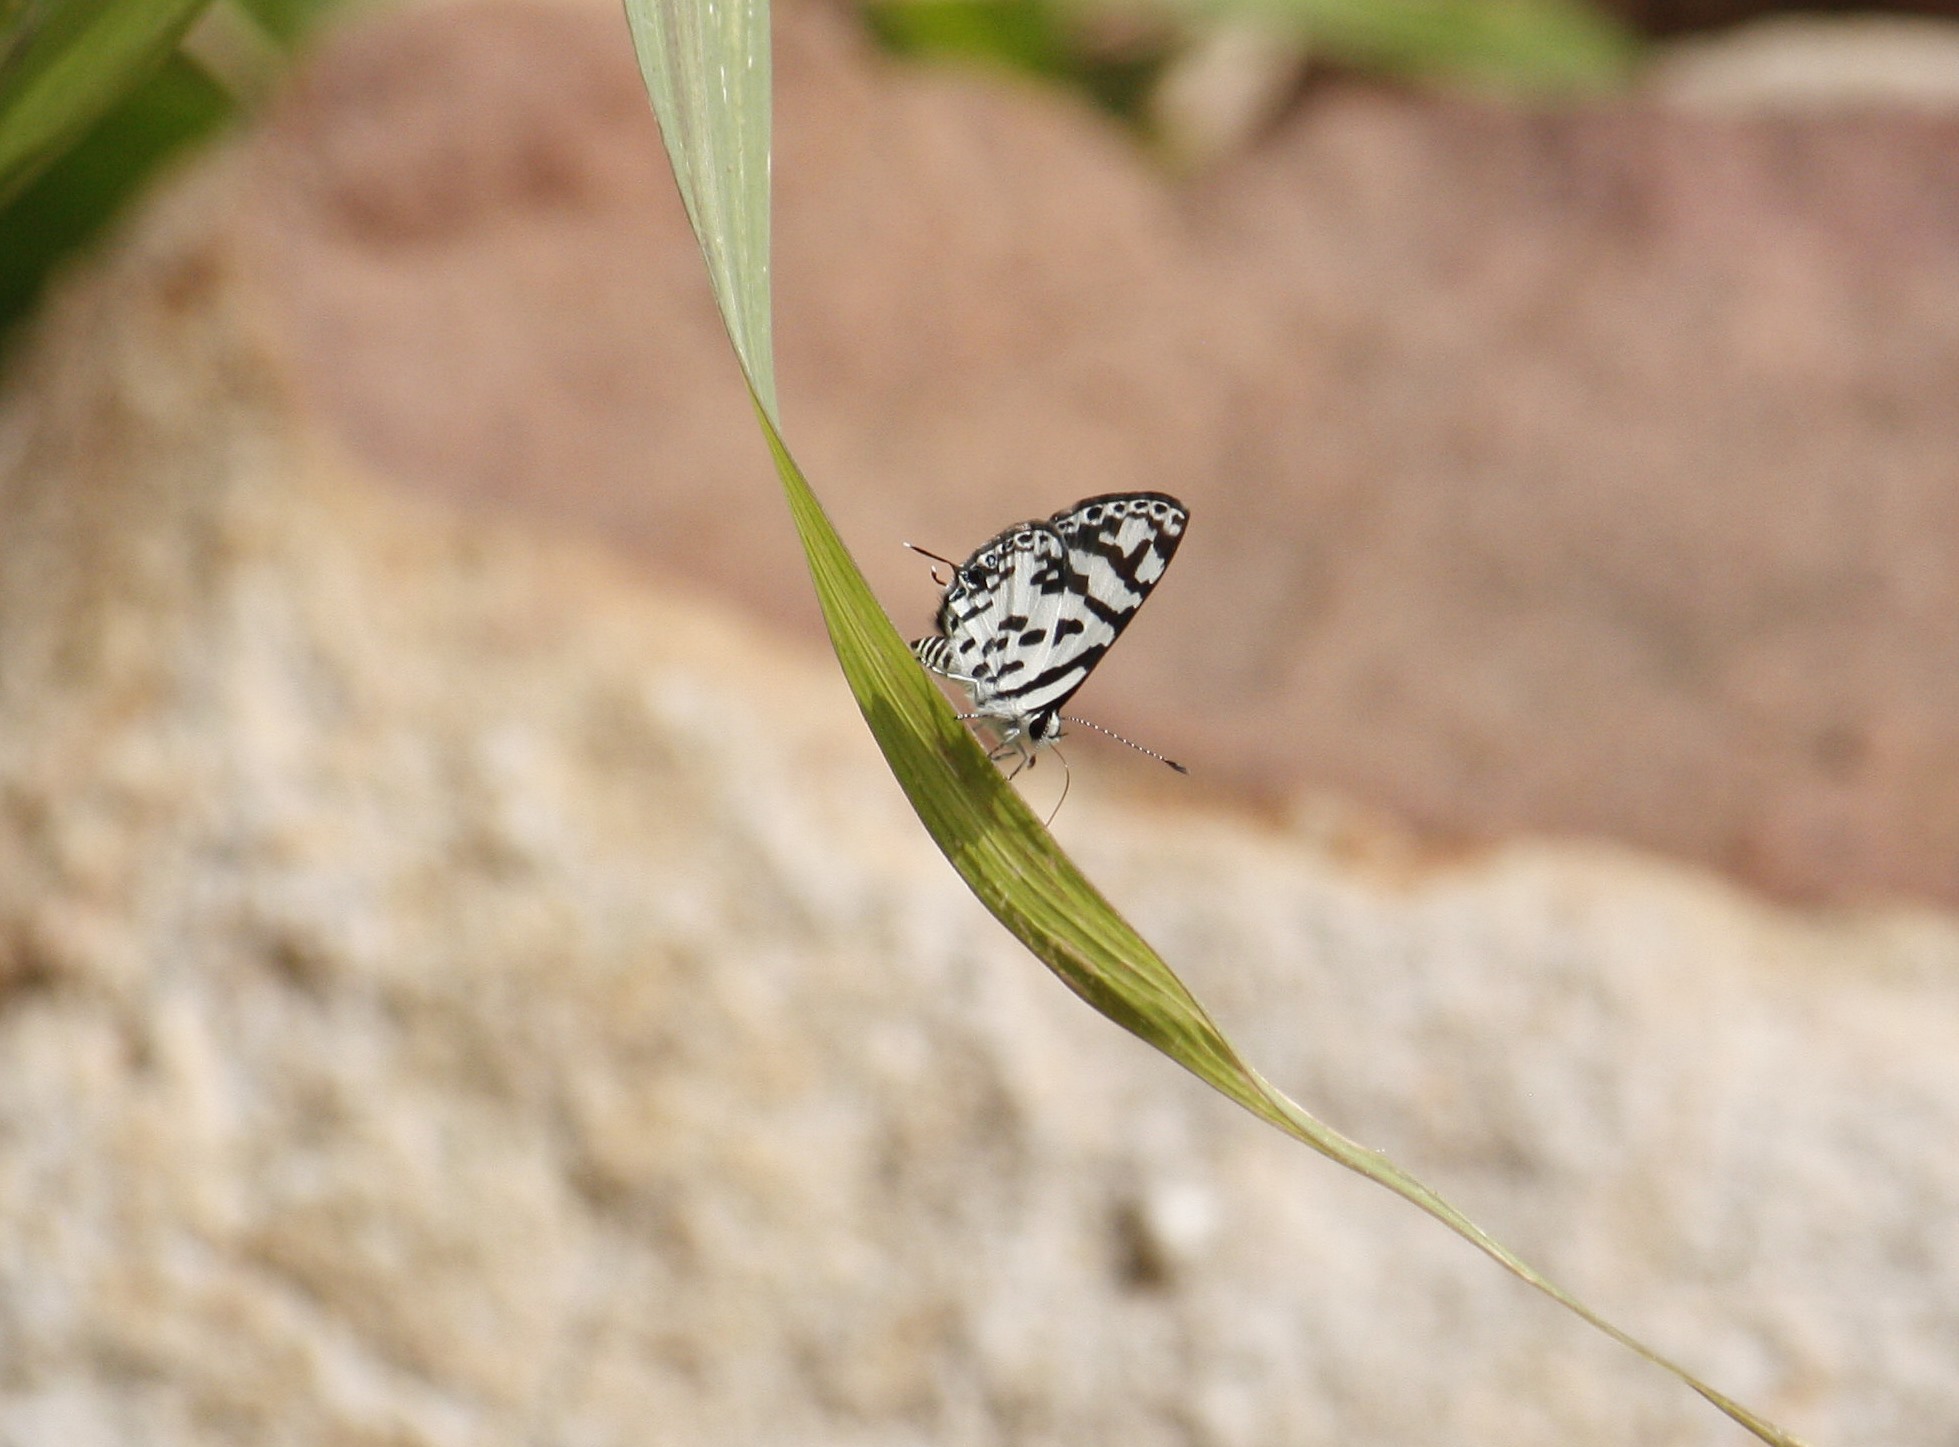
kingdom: Animalia
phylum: Arthropoda
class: Insecta
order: Lepidoptera
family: Lycaenidae
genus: Castalius
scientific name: Castalius melaena
